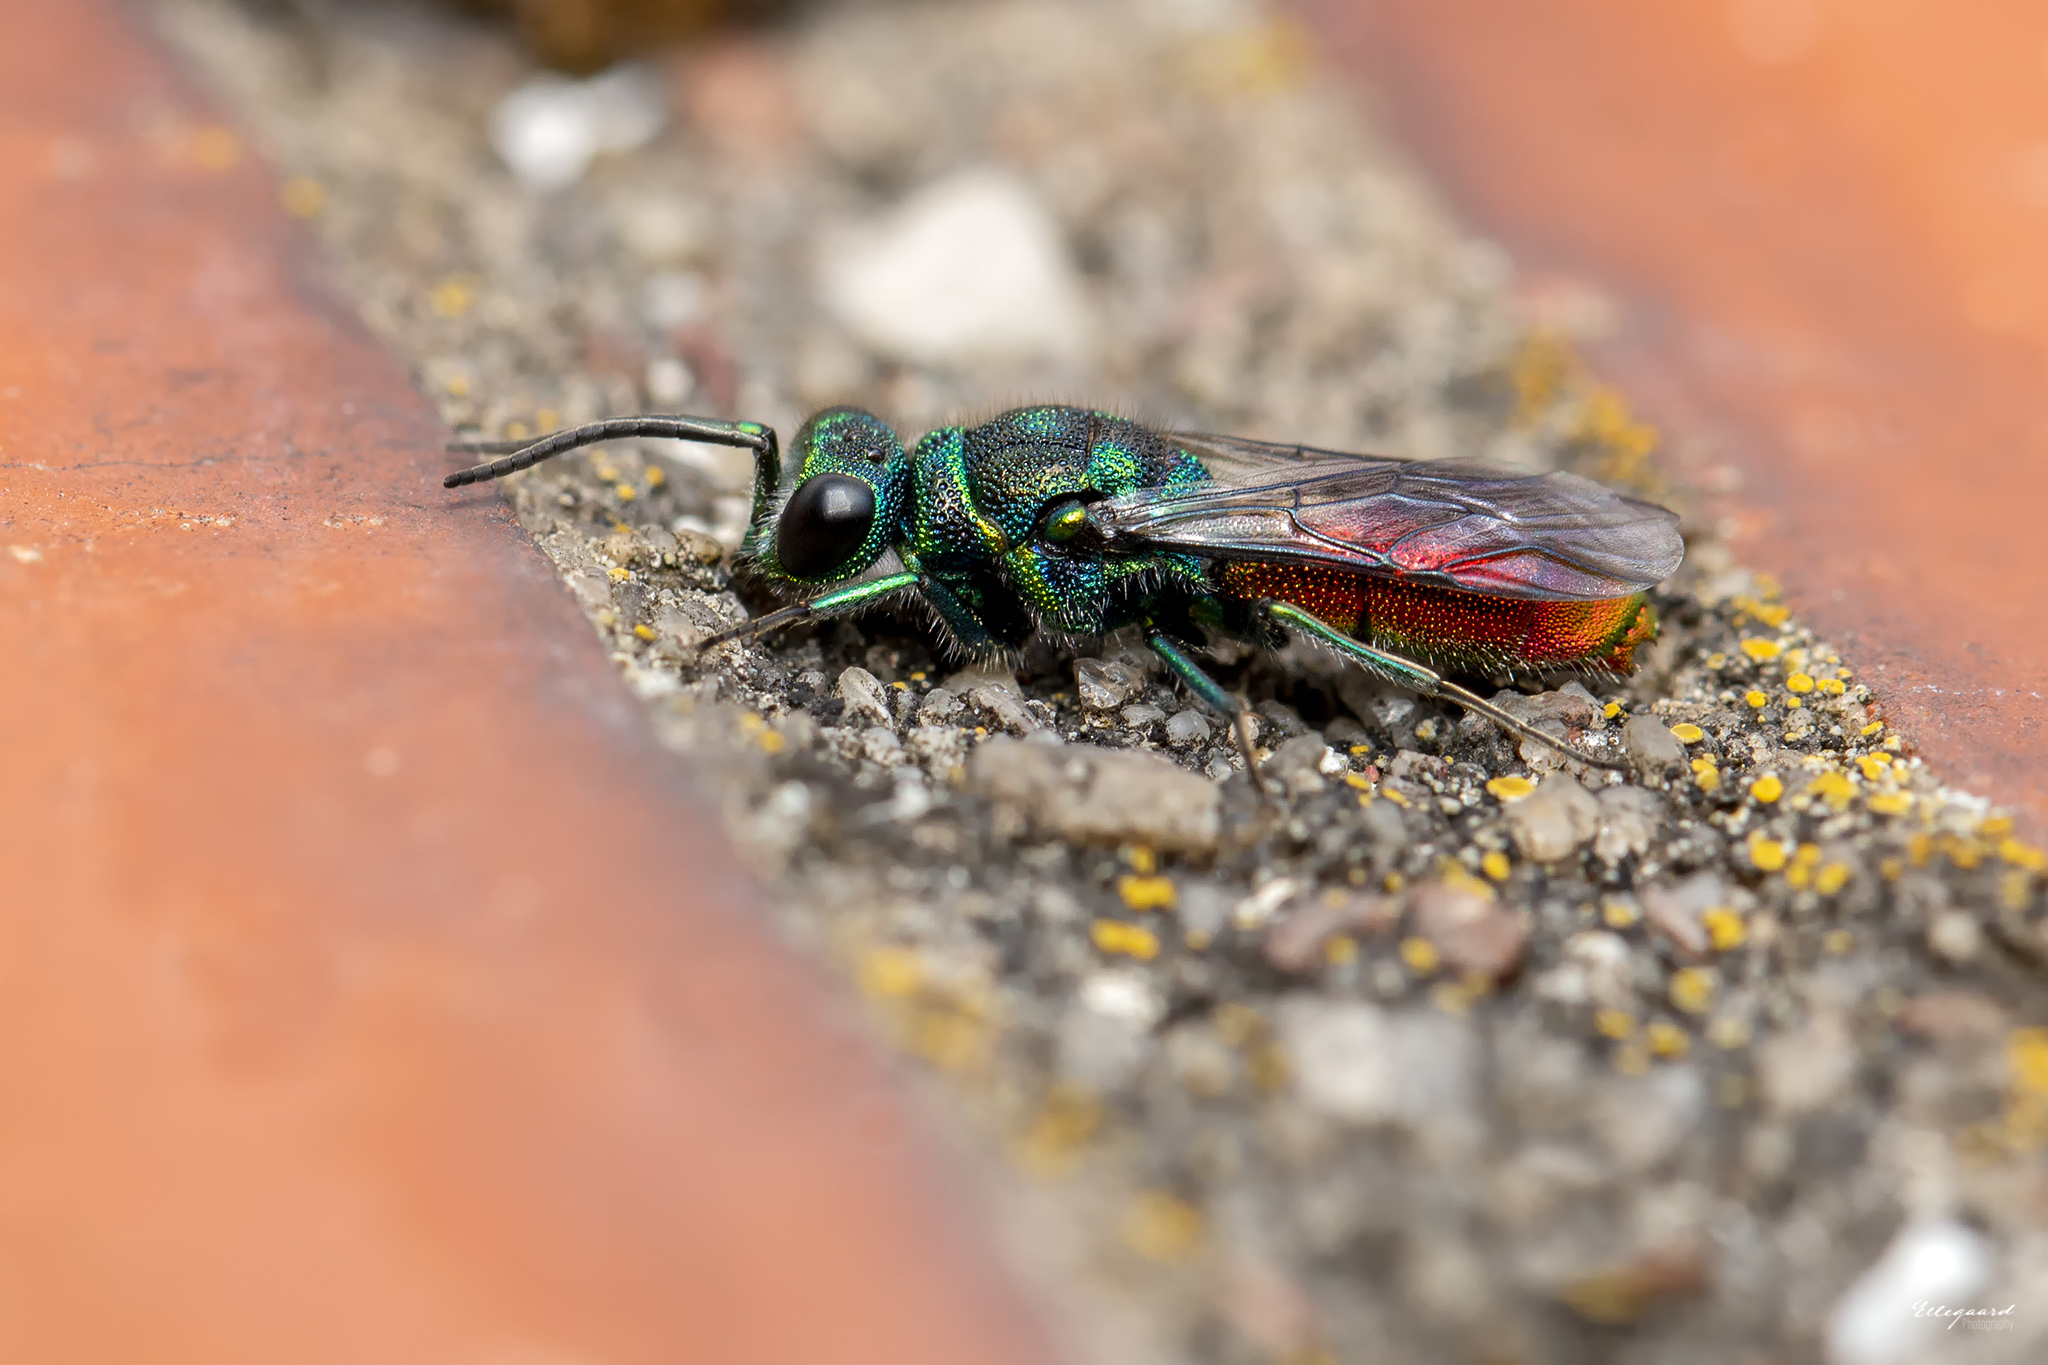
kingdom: Animalia
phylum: Arthropoda
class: Insecta
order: Hymenoptera
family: Chrysididae
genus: Chrysis
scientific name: Chrysis impressa
